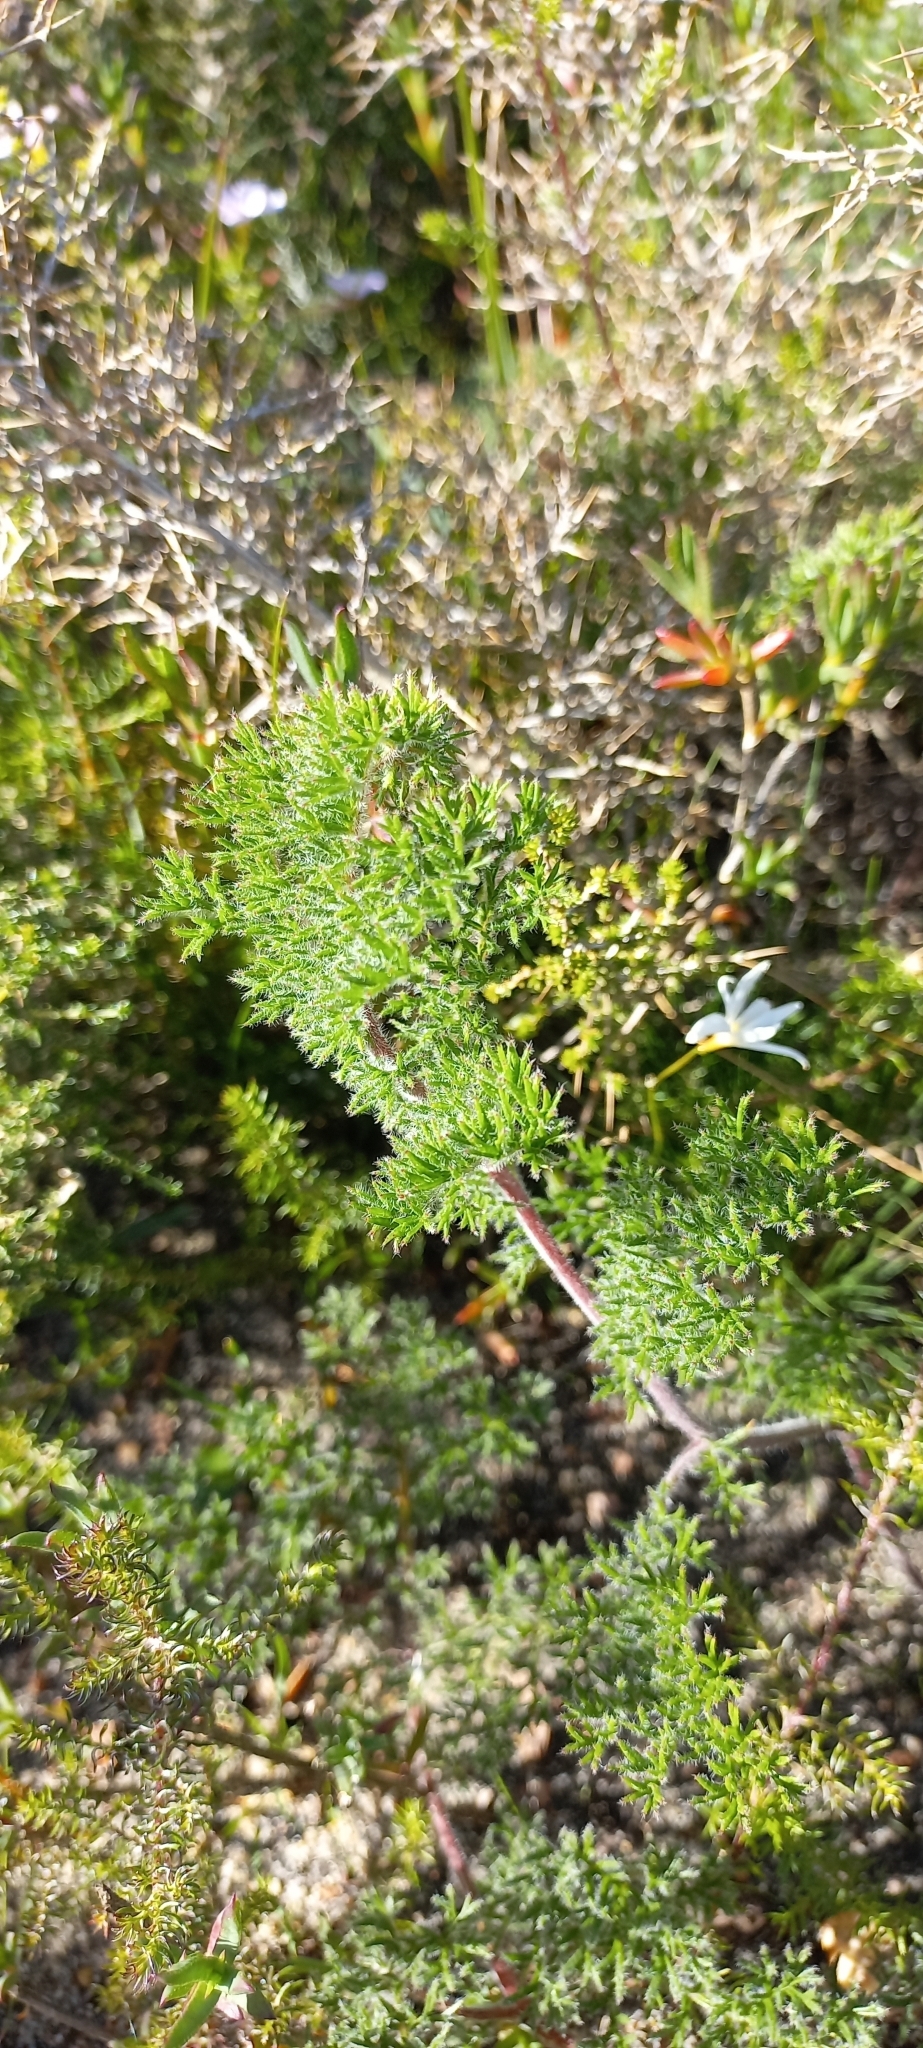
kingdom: Plantae
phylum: Tracheophyta
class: Magnoliopsida
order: Geraniales
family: Geraniaceae
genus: Pelargonium
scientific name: Pelargonium triste
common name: Night-scent pelargonium
